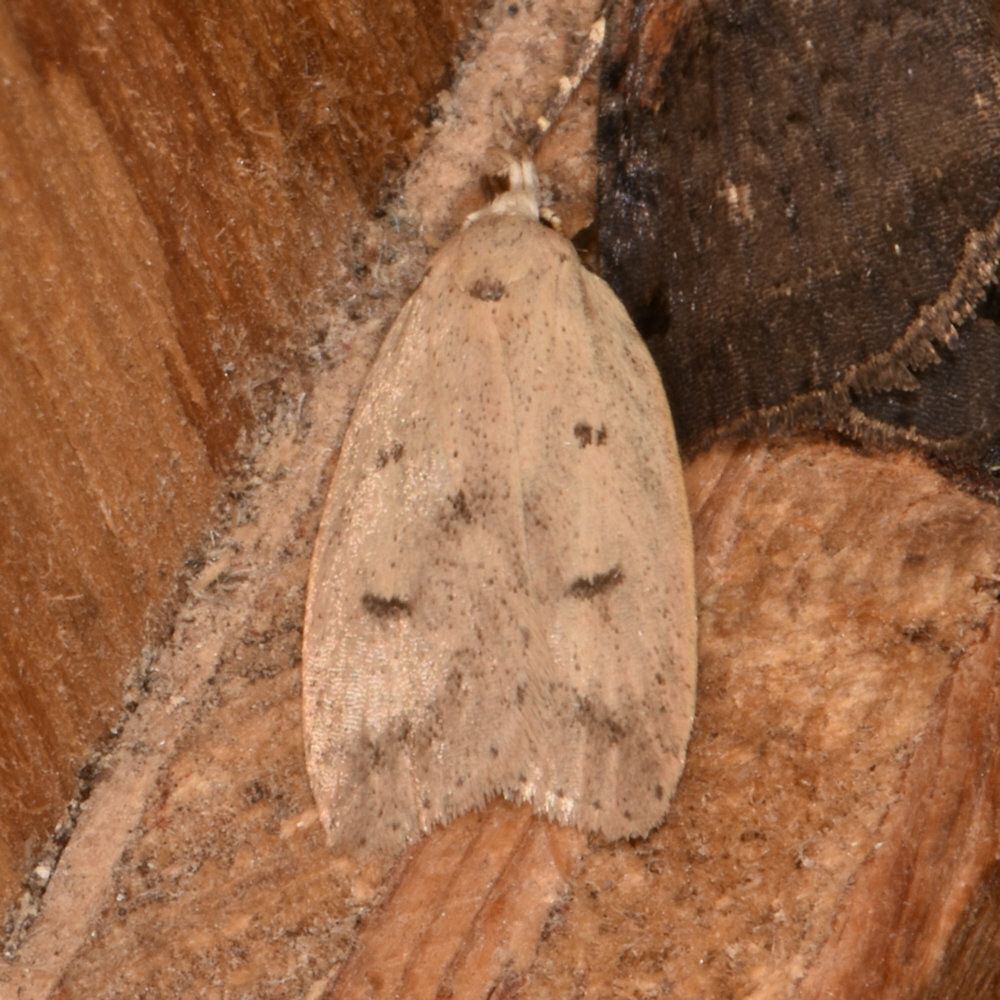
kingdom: Animalia
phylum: Arthropoda
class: Insecta
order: Lepidoptera
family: Peleopodidae
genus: Machimia
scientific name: Machimia tentoriferella
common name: Gold-striped leaftier moth
